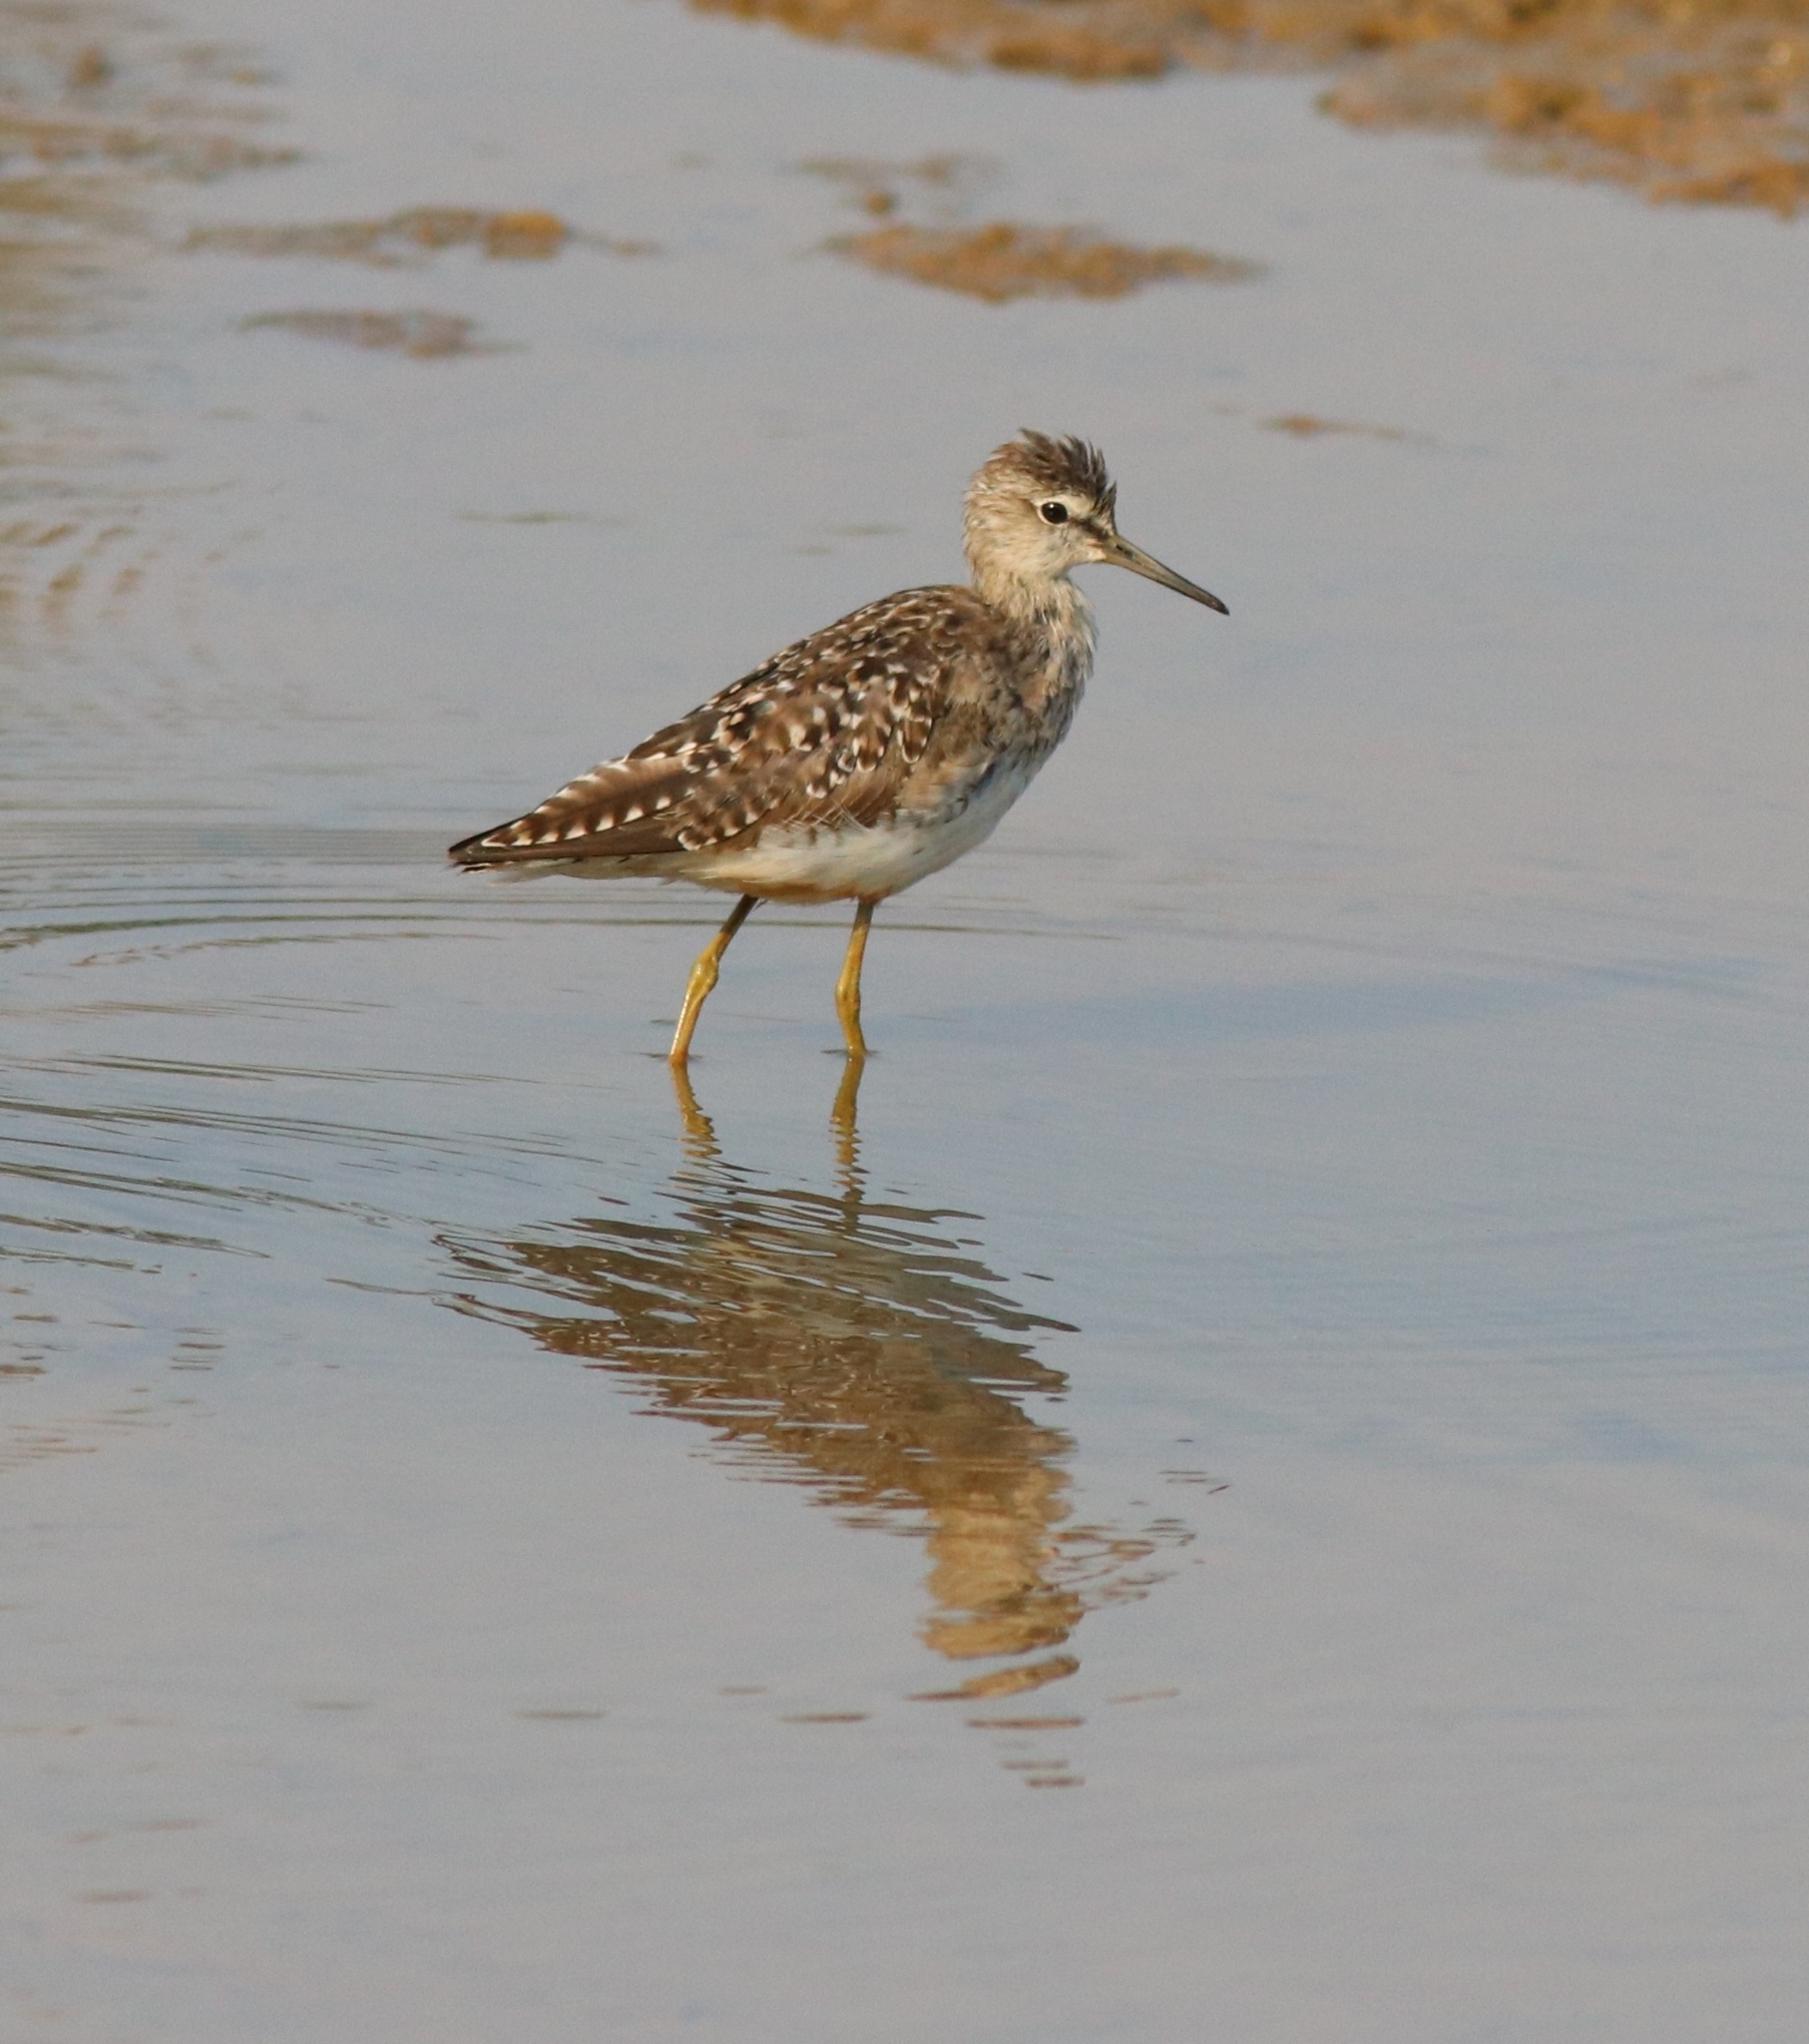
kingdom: Animalia
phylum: Chordata
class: Aves
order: Charadriiformes
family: Scolopacidae
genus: Tringa
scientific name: Tringa glareola
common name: Wood sandpiper
